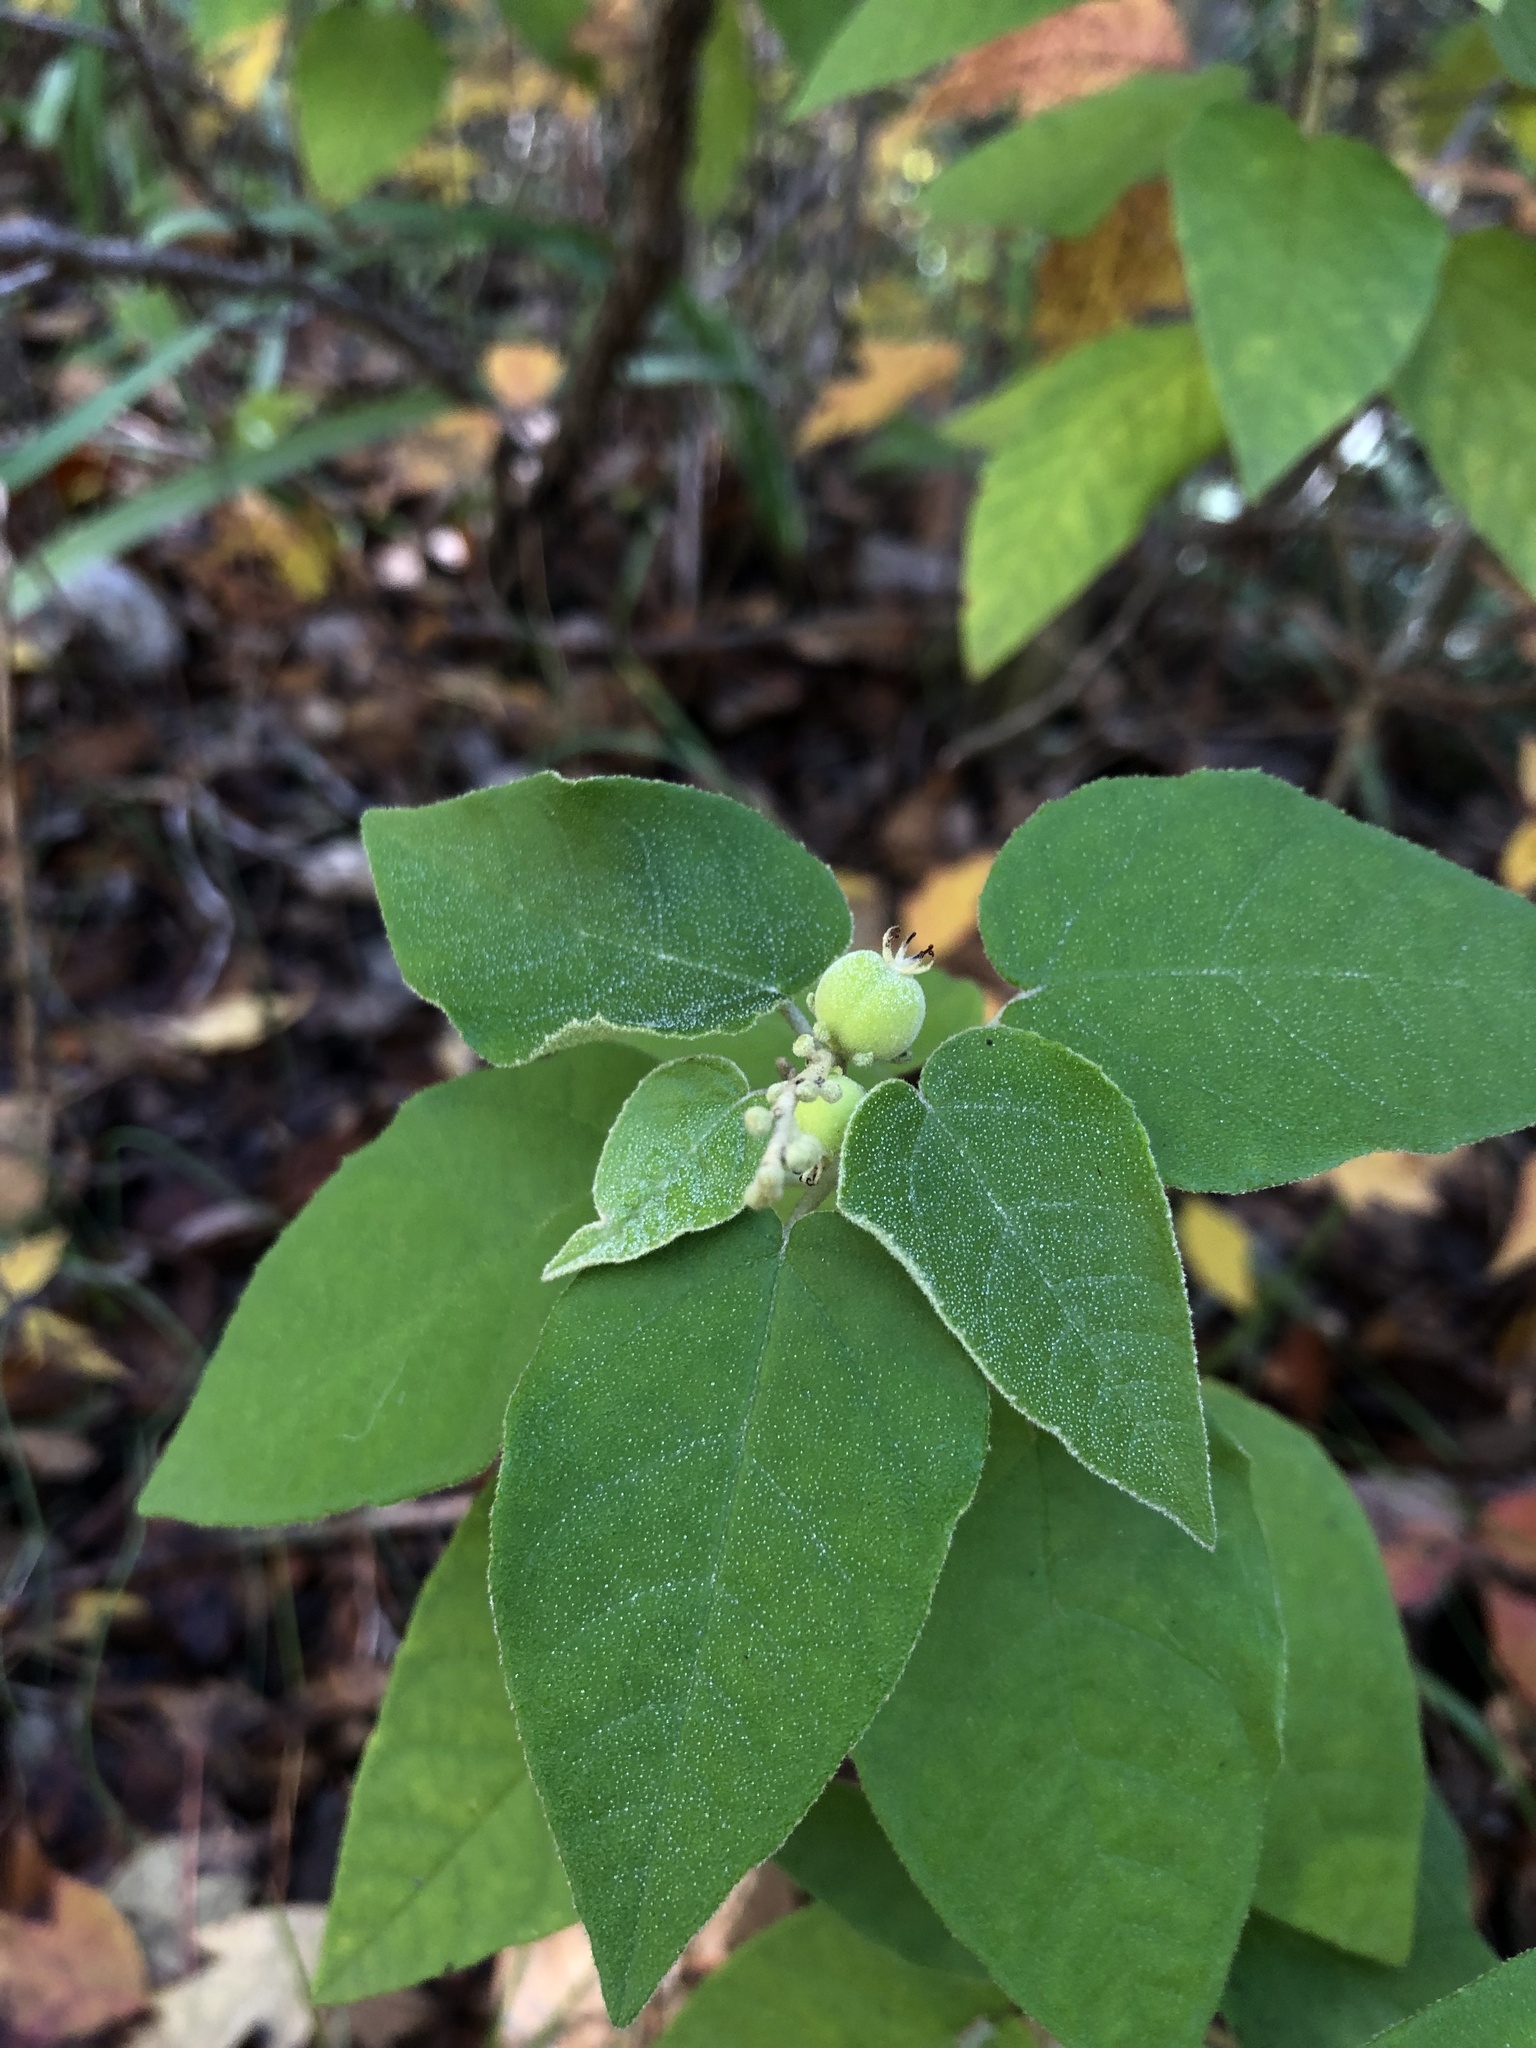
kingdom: Plantae
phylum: Tracheophyta
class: Magnoliopsida
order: Malpighiales
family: Euphorbiaceae
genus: Croton
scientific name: Croton fruticulosus
